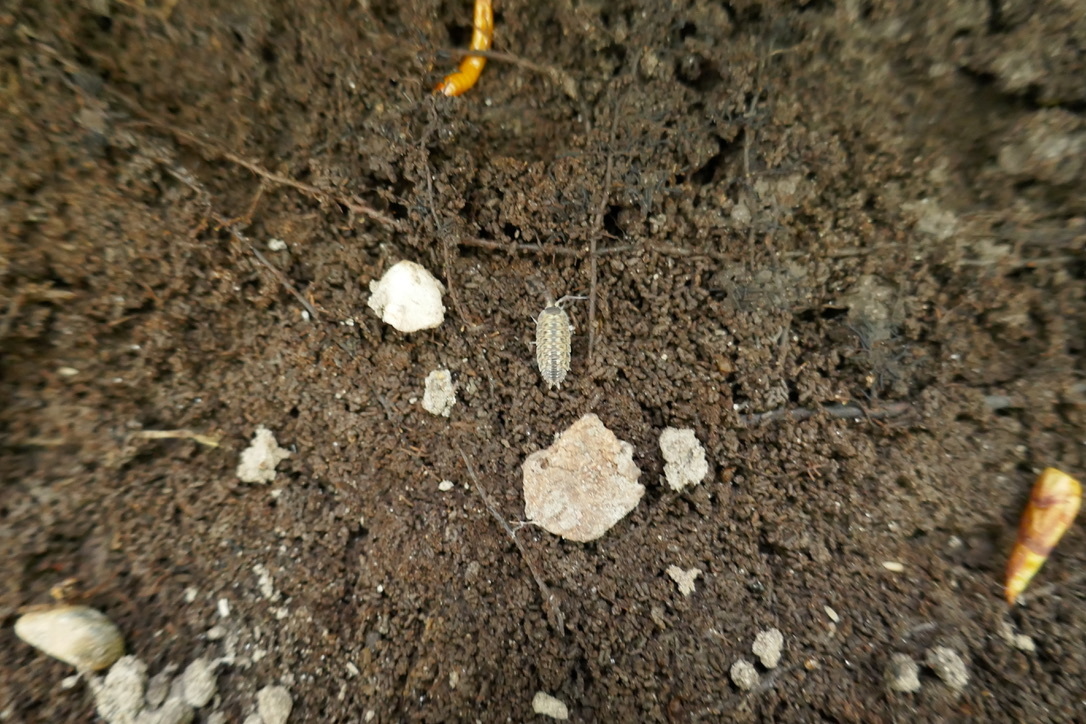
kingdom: Animalia
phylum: Arthropoda
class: Malacostraca
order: Isopoda
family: Porcellionidae
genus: Porcellio
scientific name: Porcellio spinicornis
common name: Painted woodlouse
